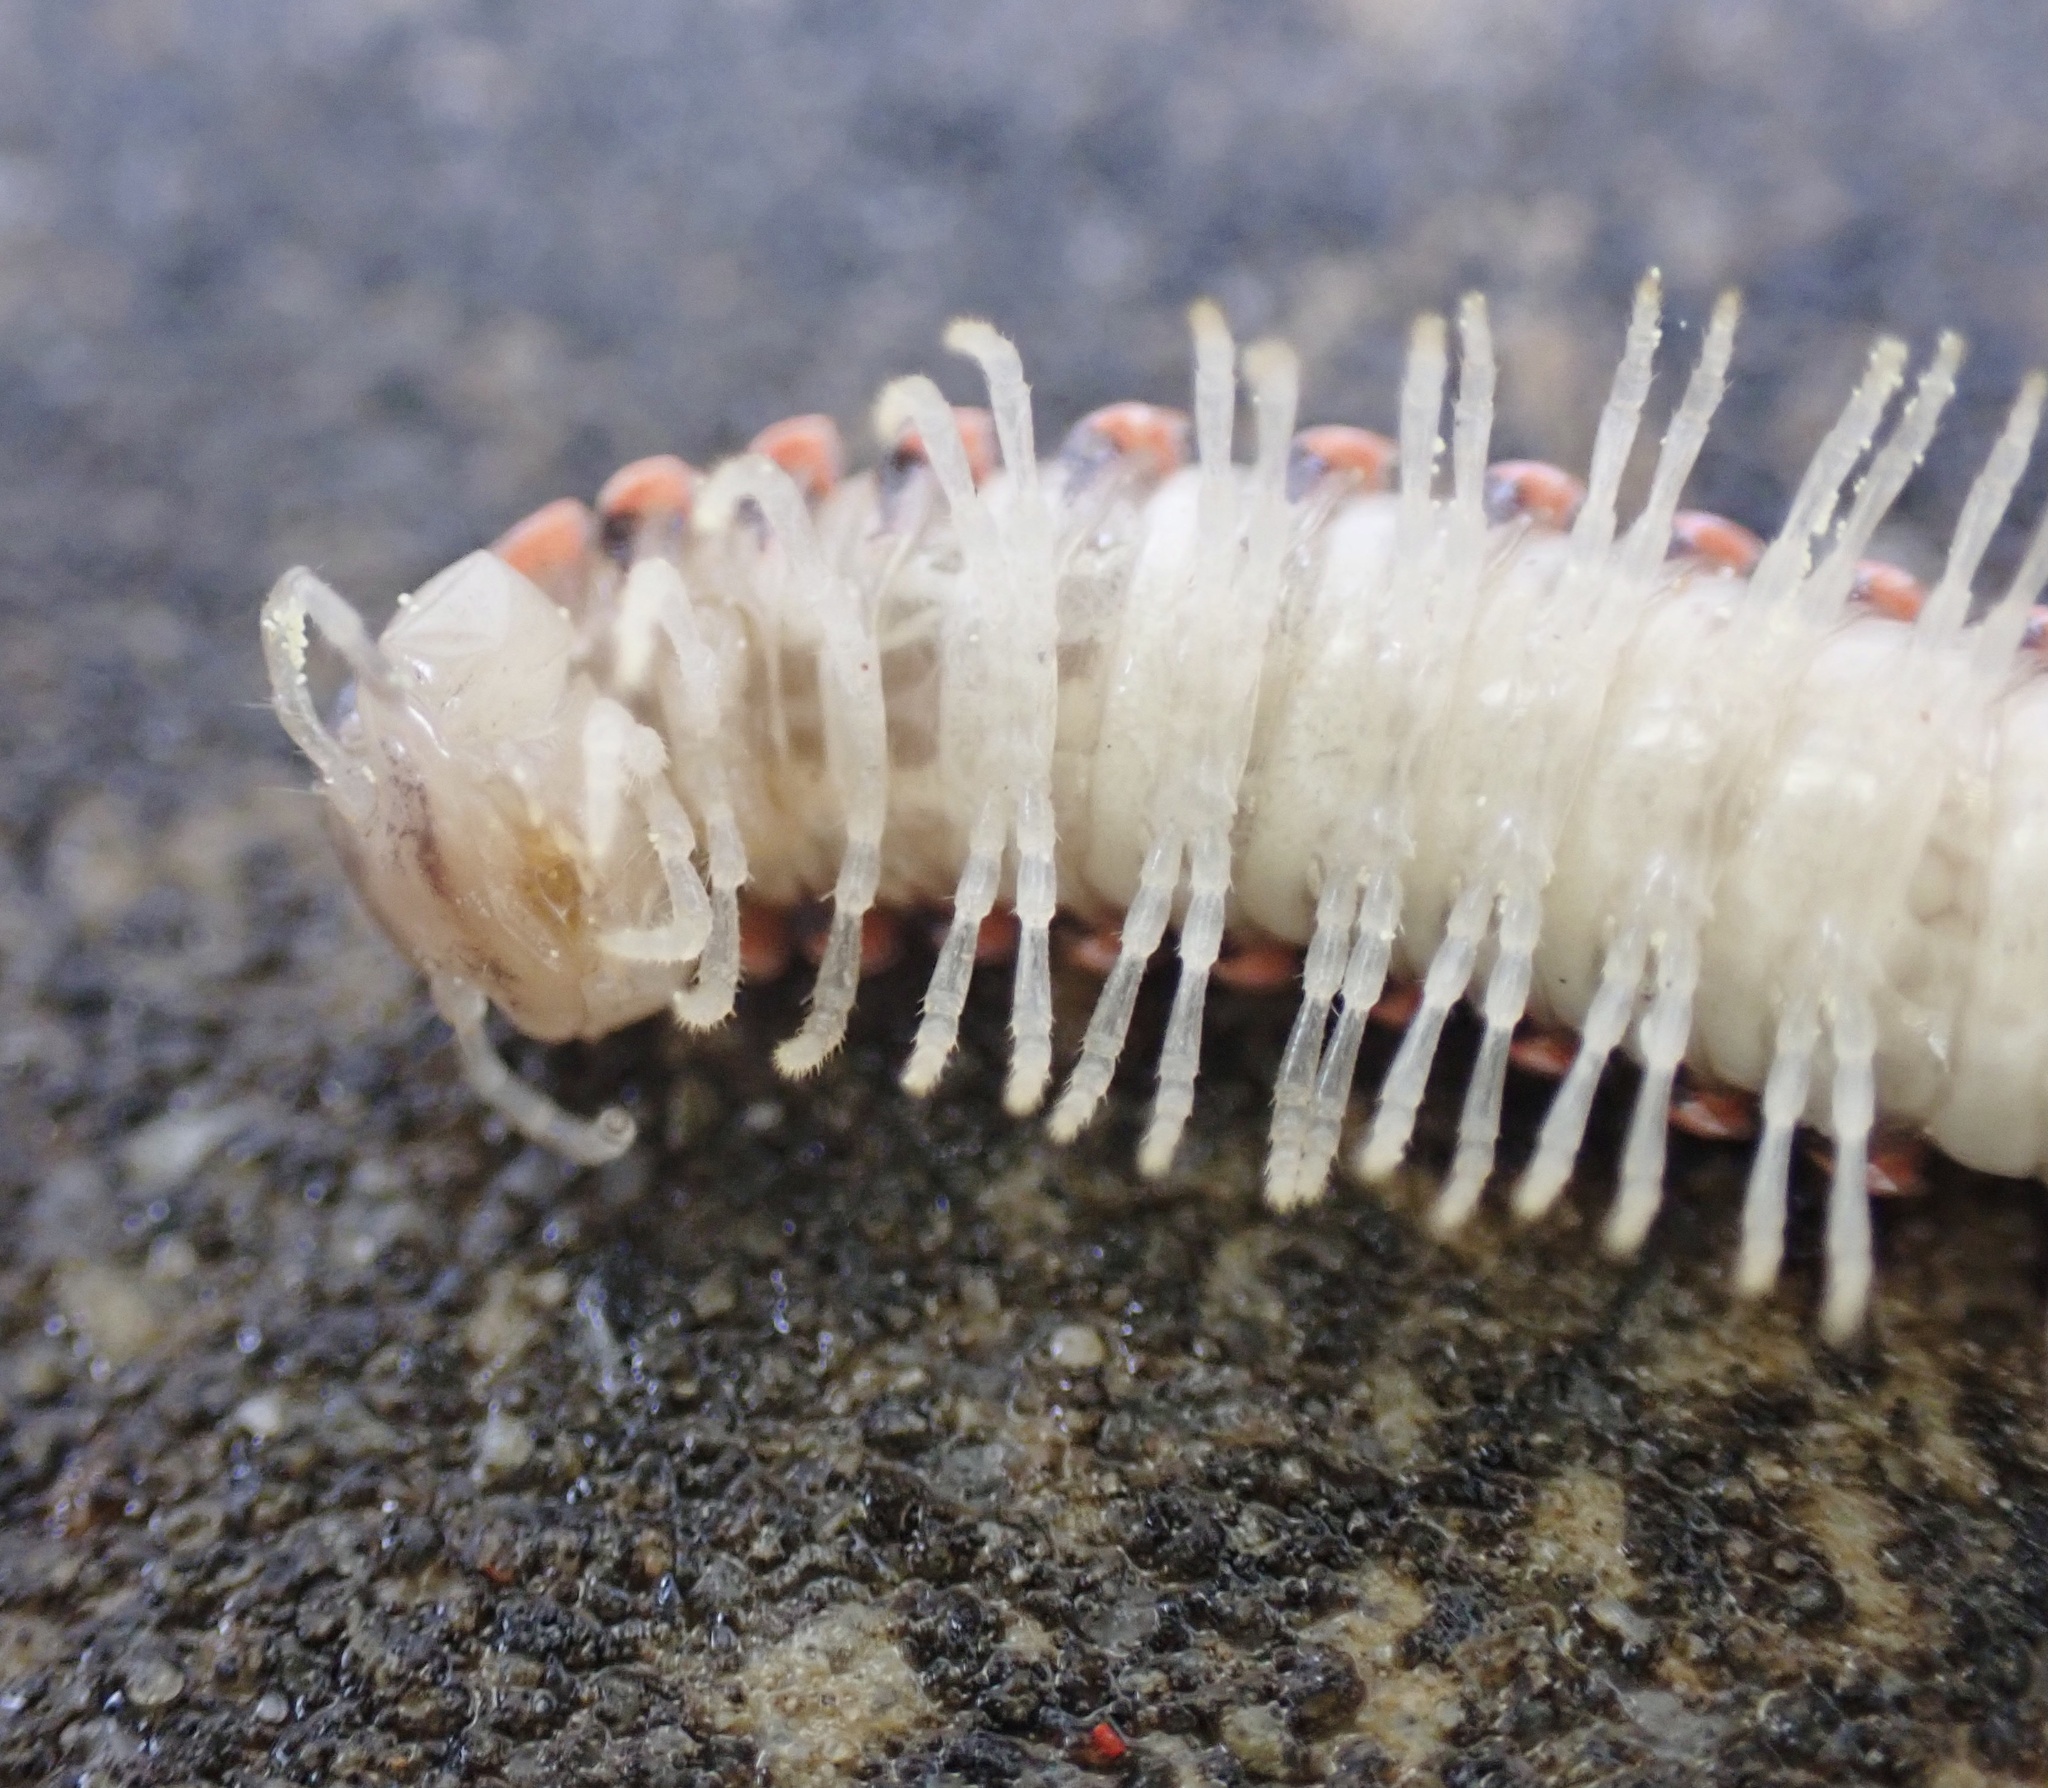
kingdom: Animalia
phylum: Arthropoda
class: Diplopoda
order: Polydesmida
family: Xystodesmidae
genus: Oenomaea
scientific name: Oenomaea pulchella
